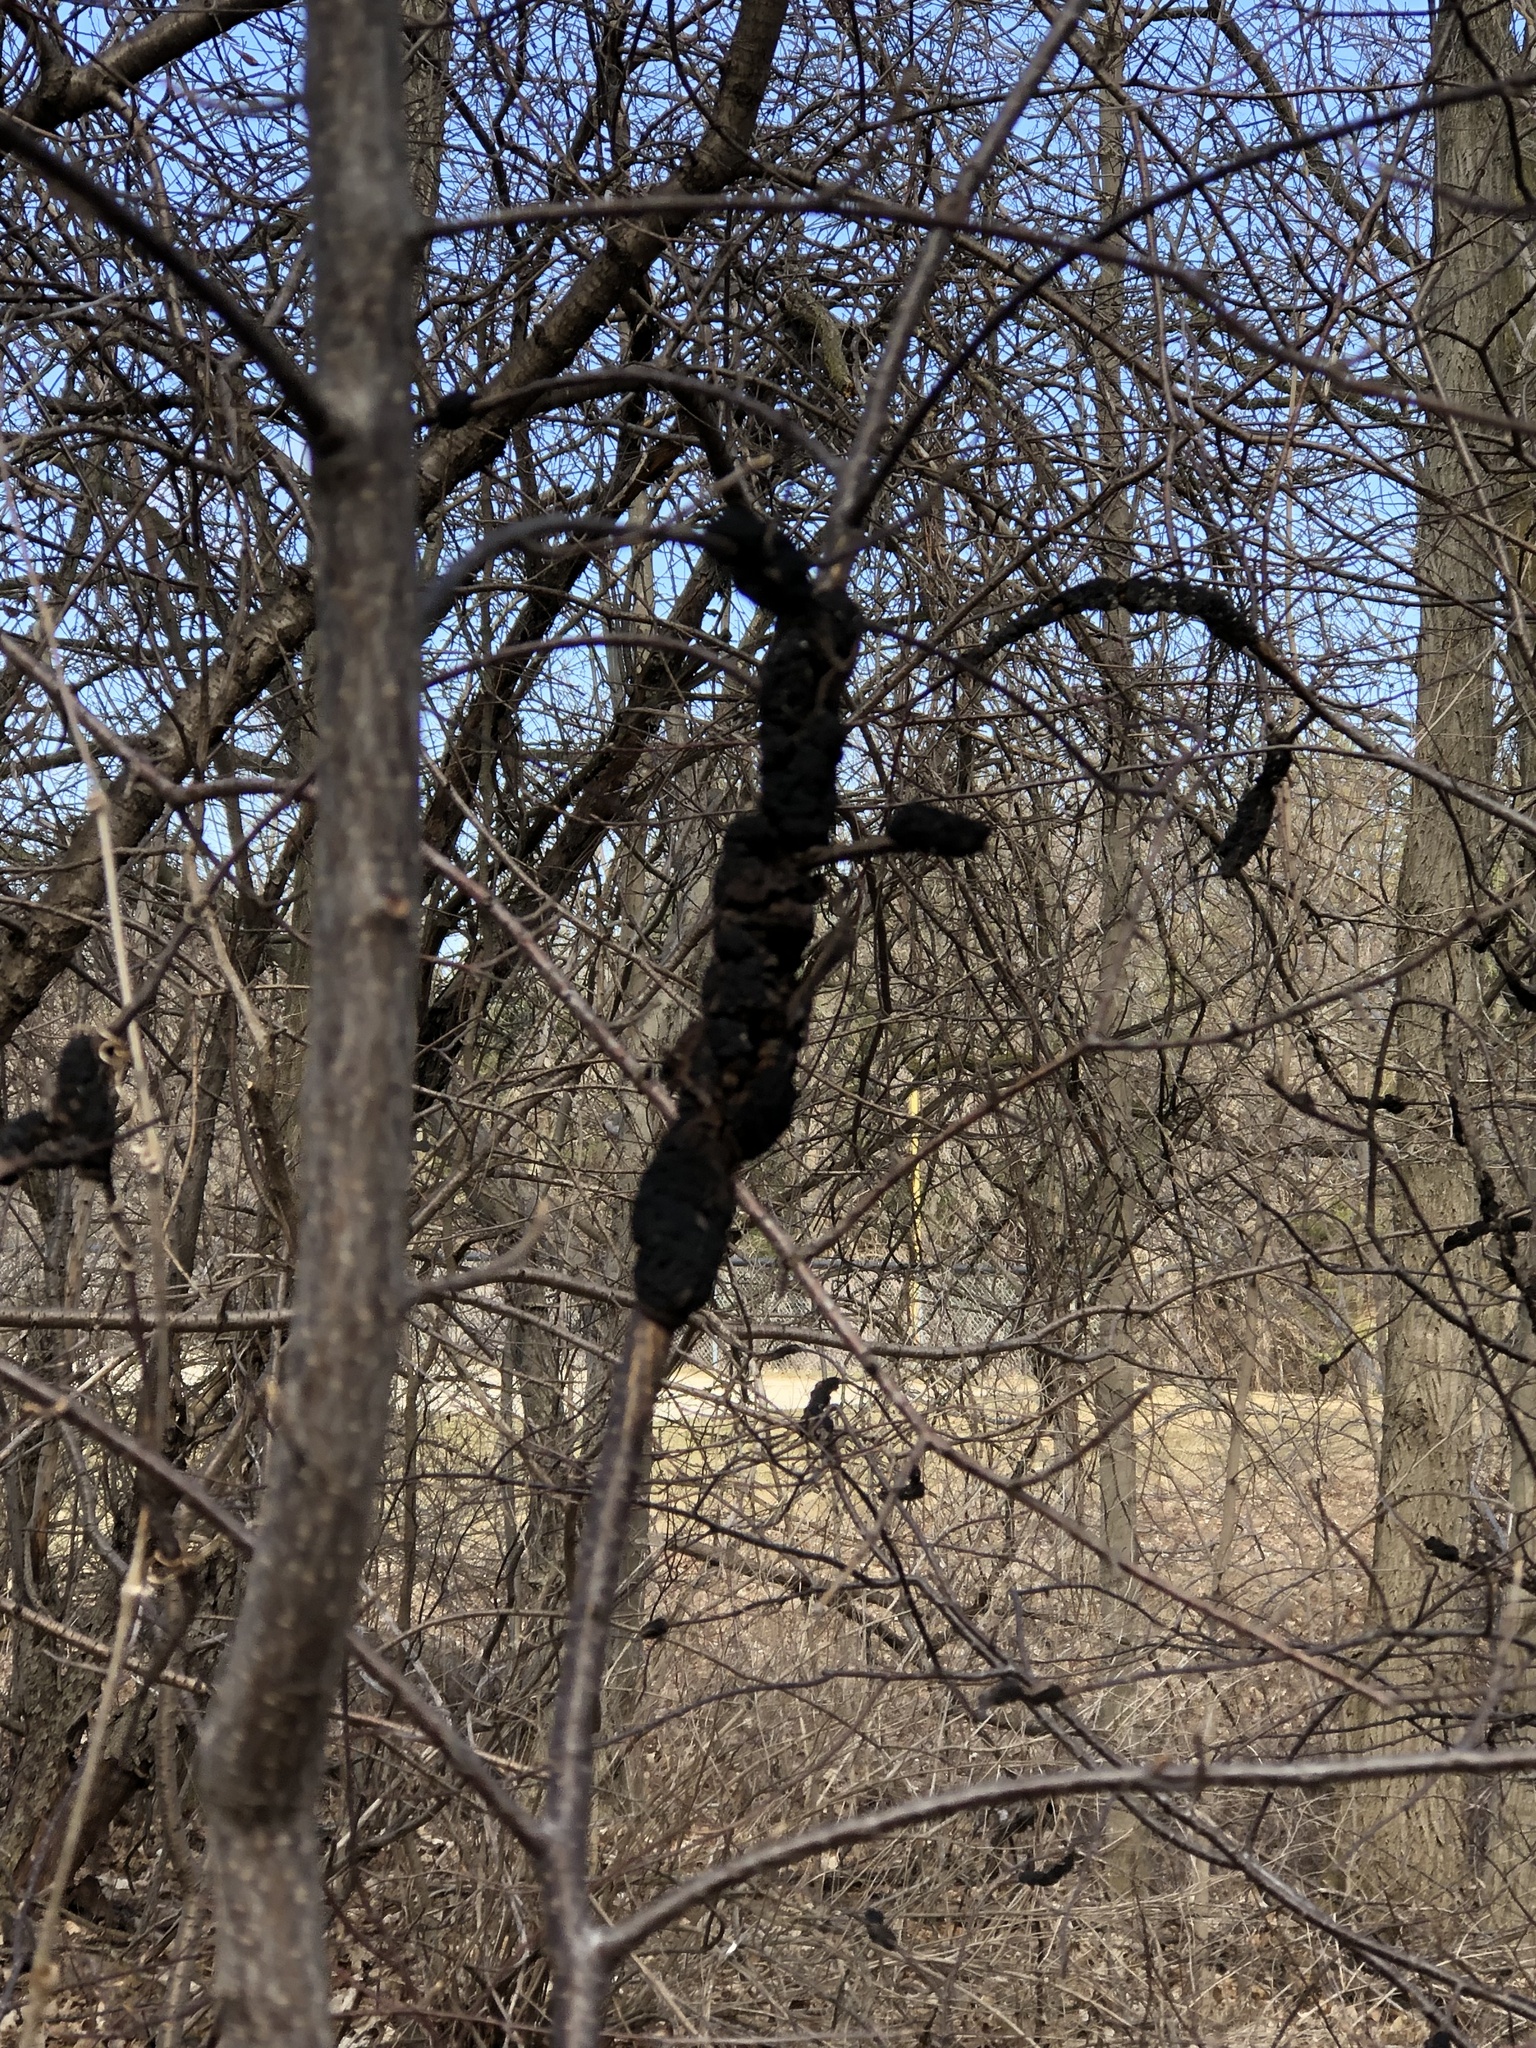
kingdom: Fungi
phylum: Ascomycota
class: Dothideomycetes
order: Venturiales
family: Venturiaceae
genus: Apiosporina
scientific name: Apiosporina morbosa
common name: Black knot
